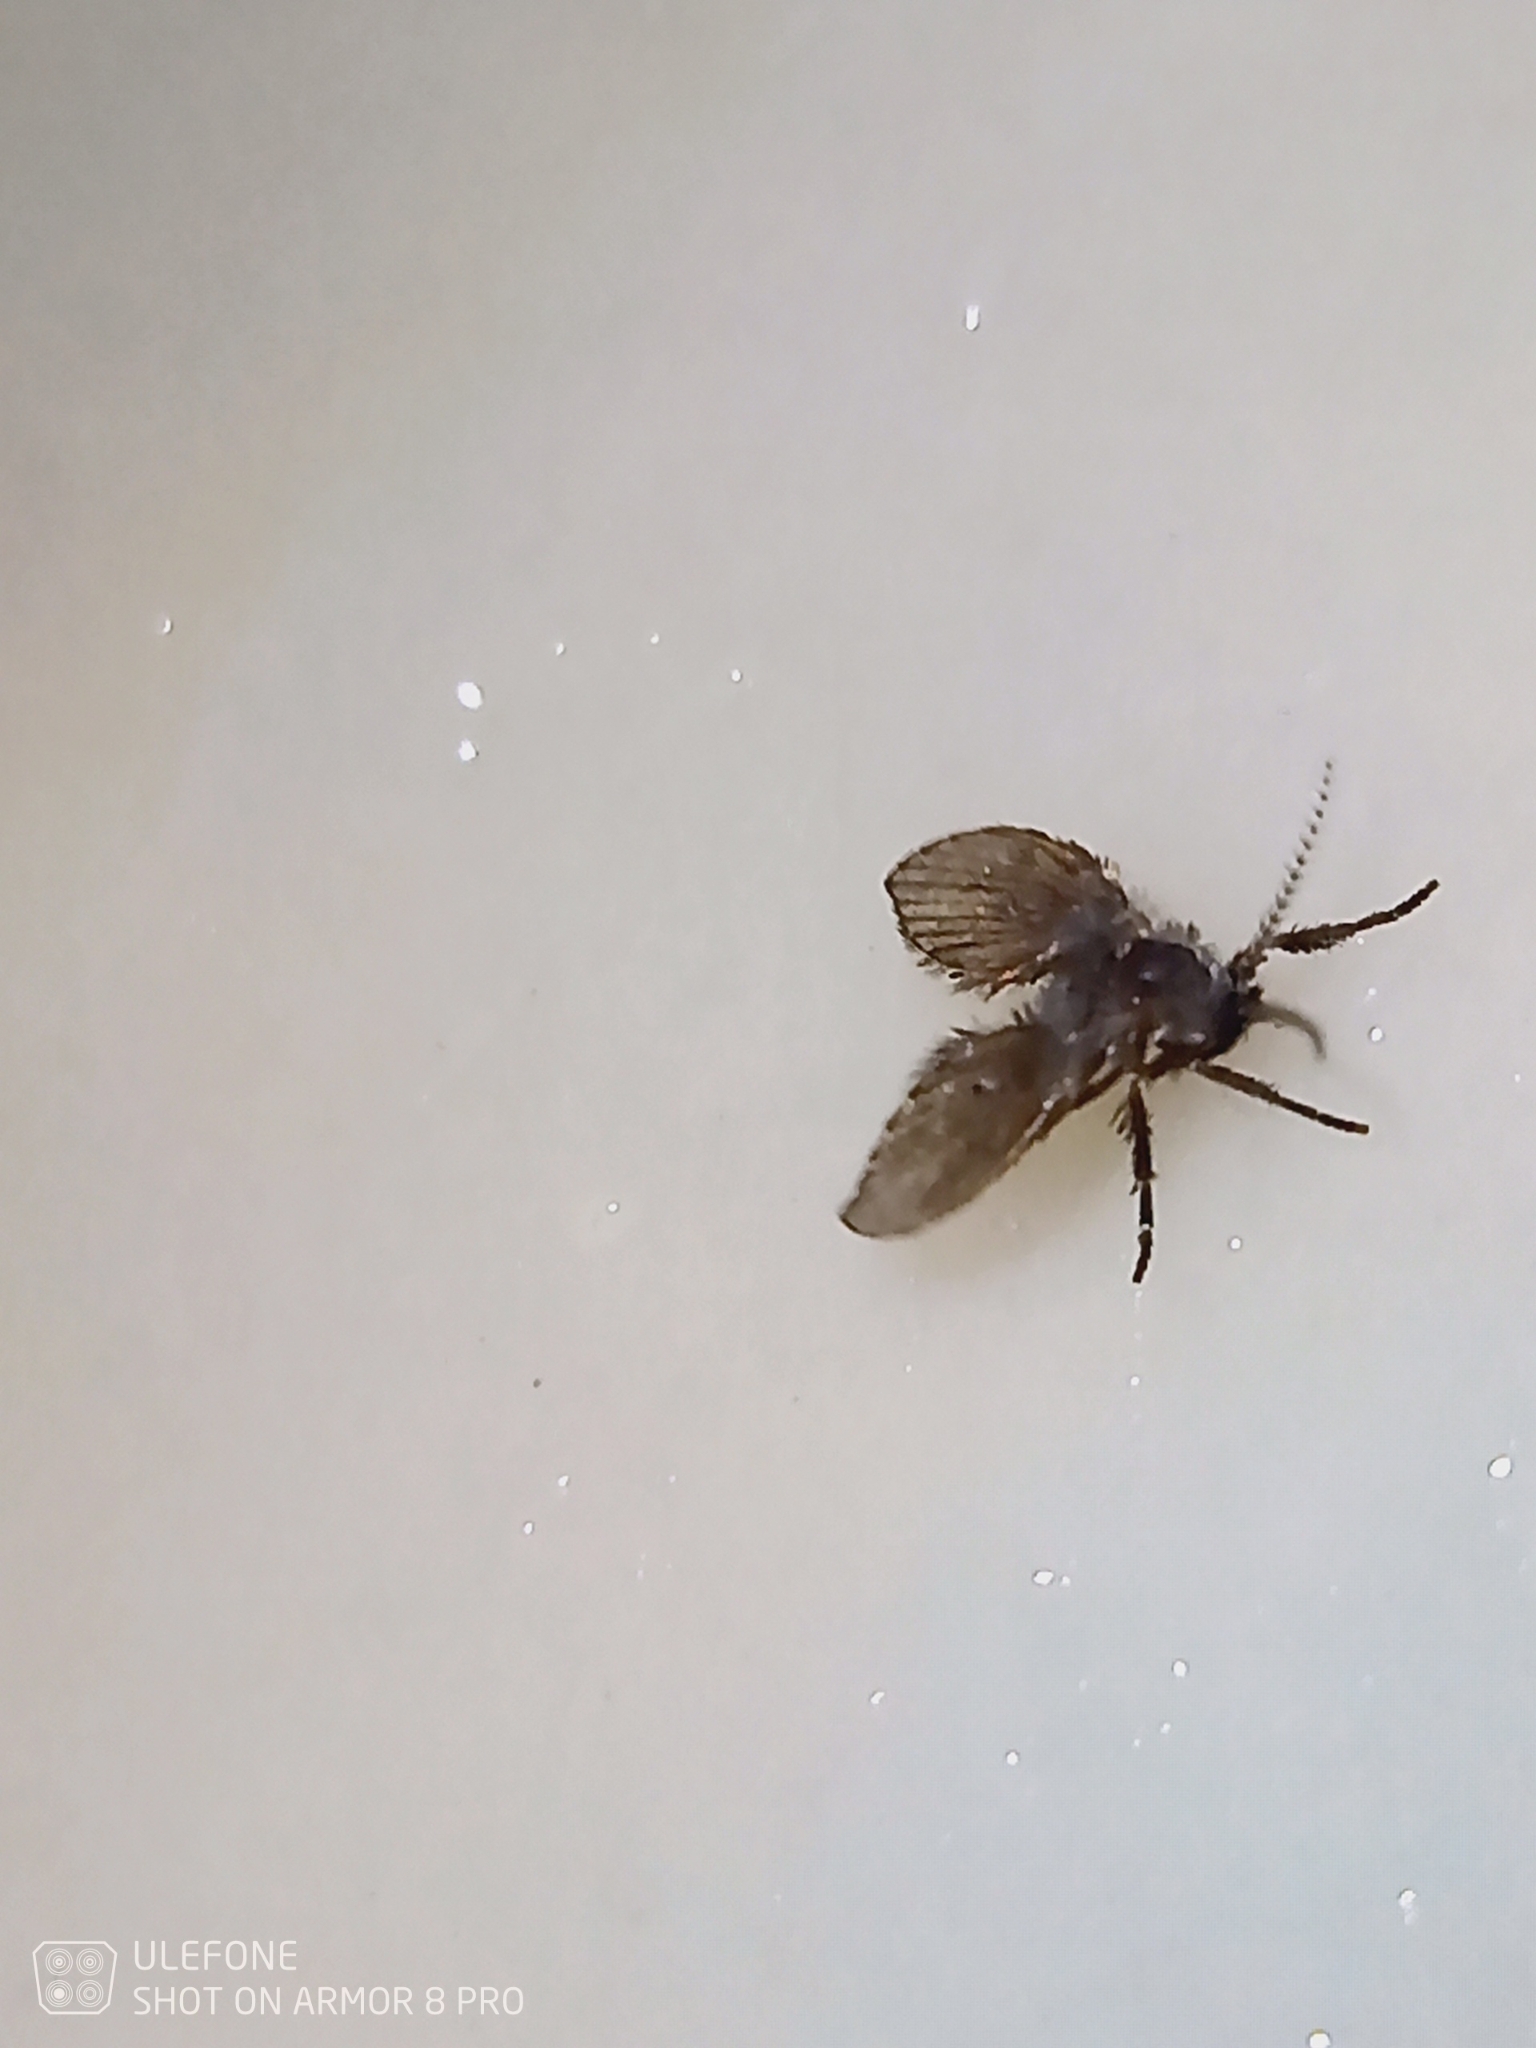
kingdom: Animalia
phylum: Arthropoda
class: Insecta
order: Diptera
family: Psychodidae
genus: Clogmia
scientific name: Clogmia albipunctatus
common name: White-spotted moth fly
